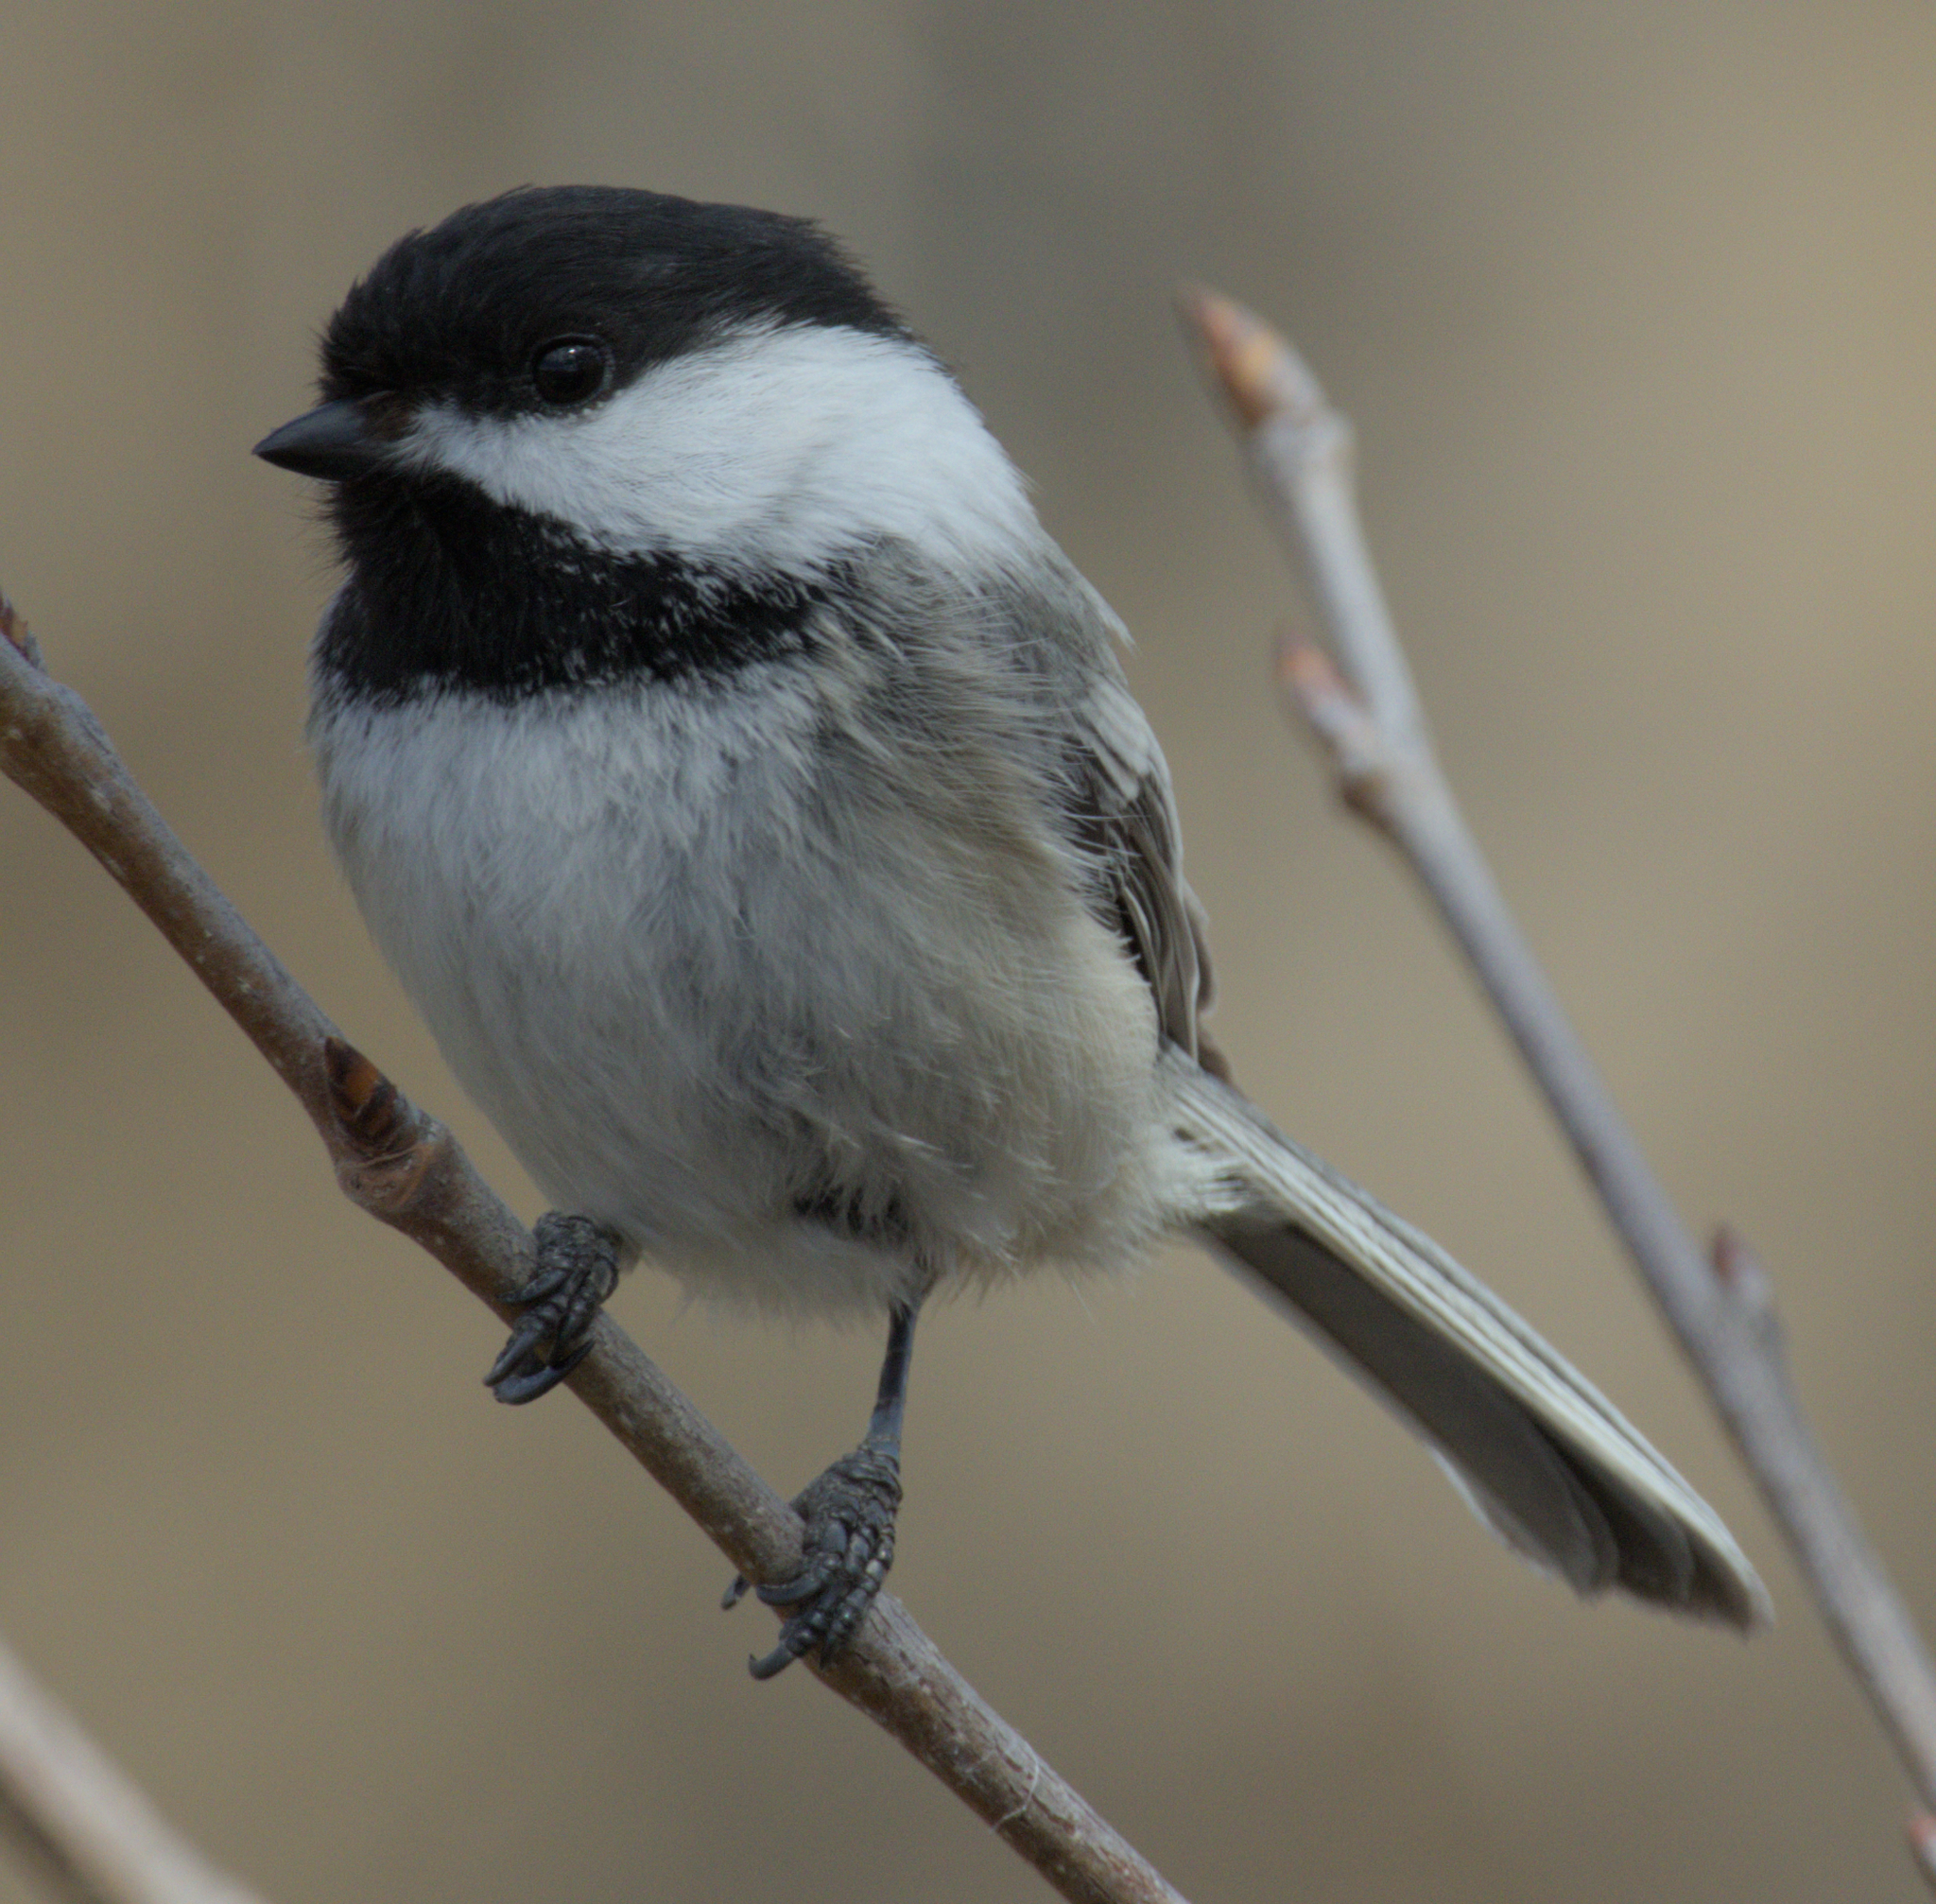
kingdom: Animalia
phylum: Chordata
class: Aves
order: Passeriformes
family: Paridae
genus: Poecile
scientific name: Poecile atricapillus
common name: Black-capped chickadee
